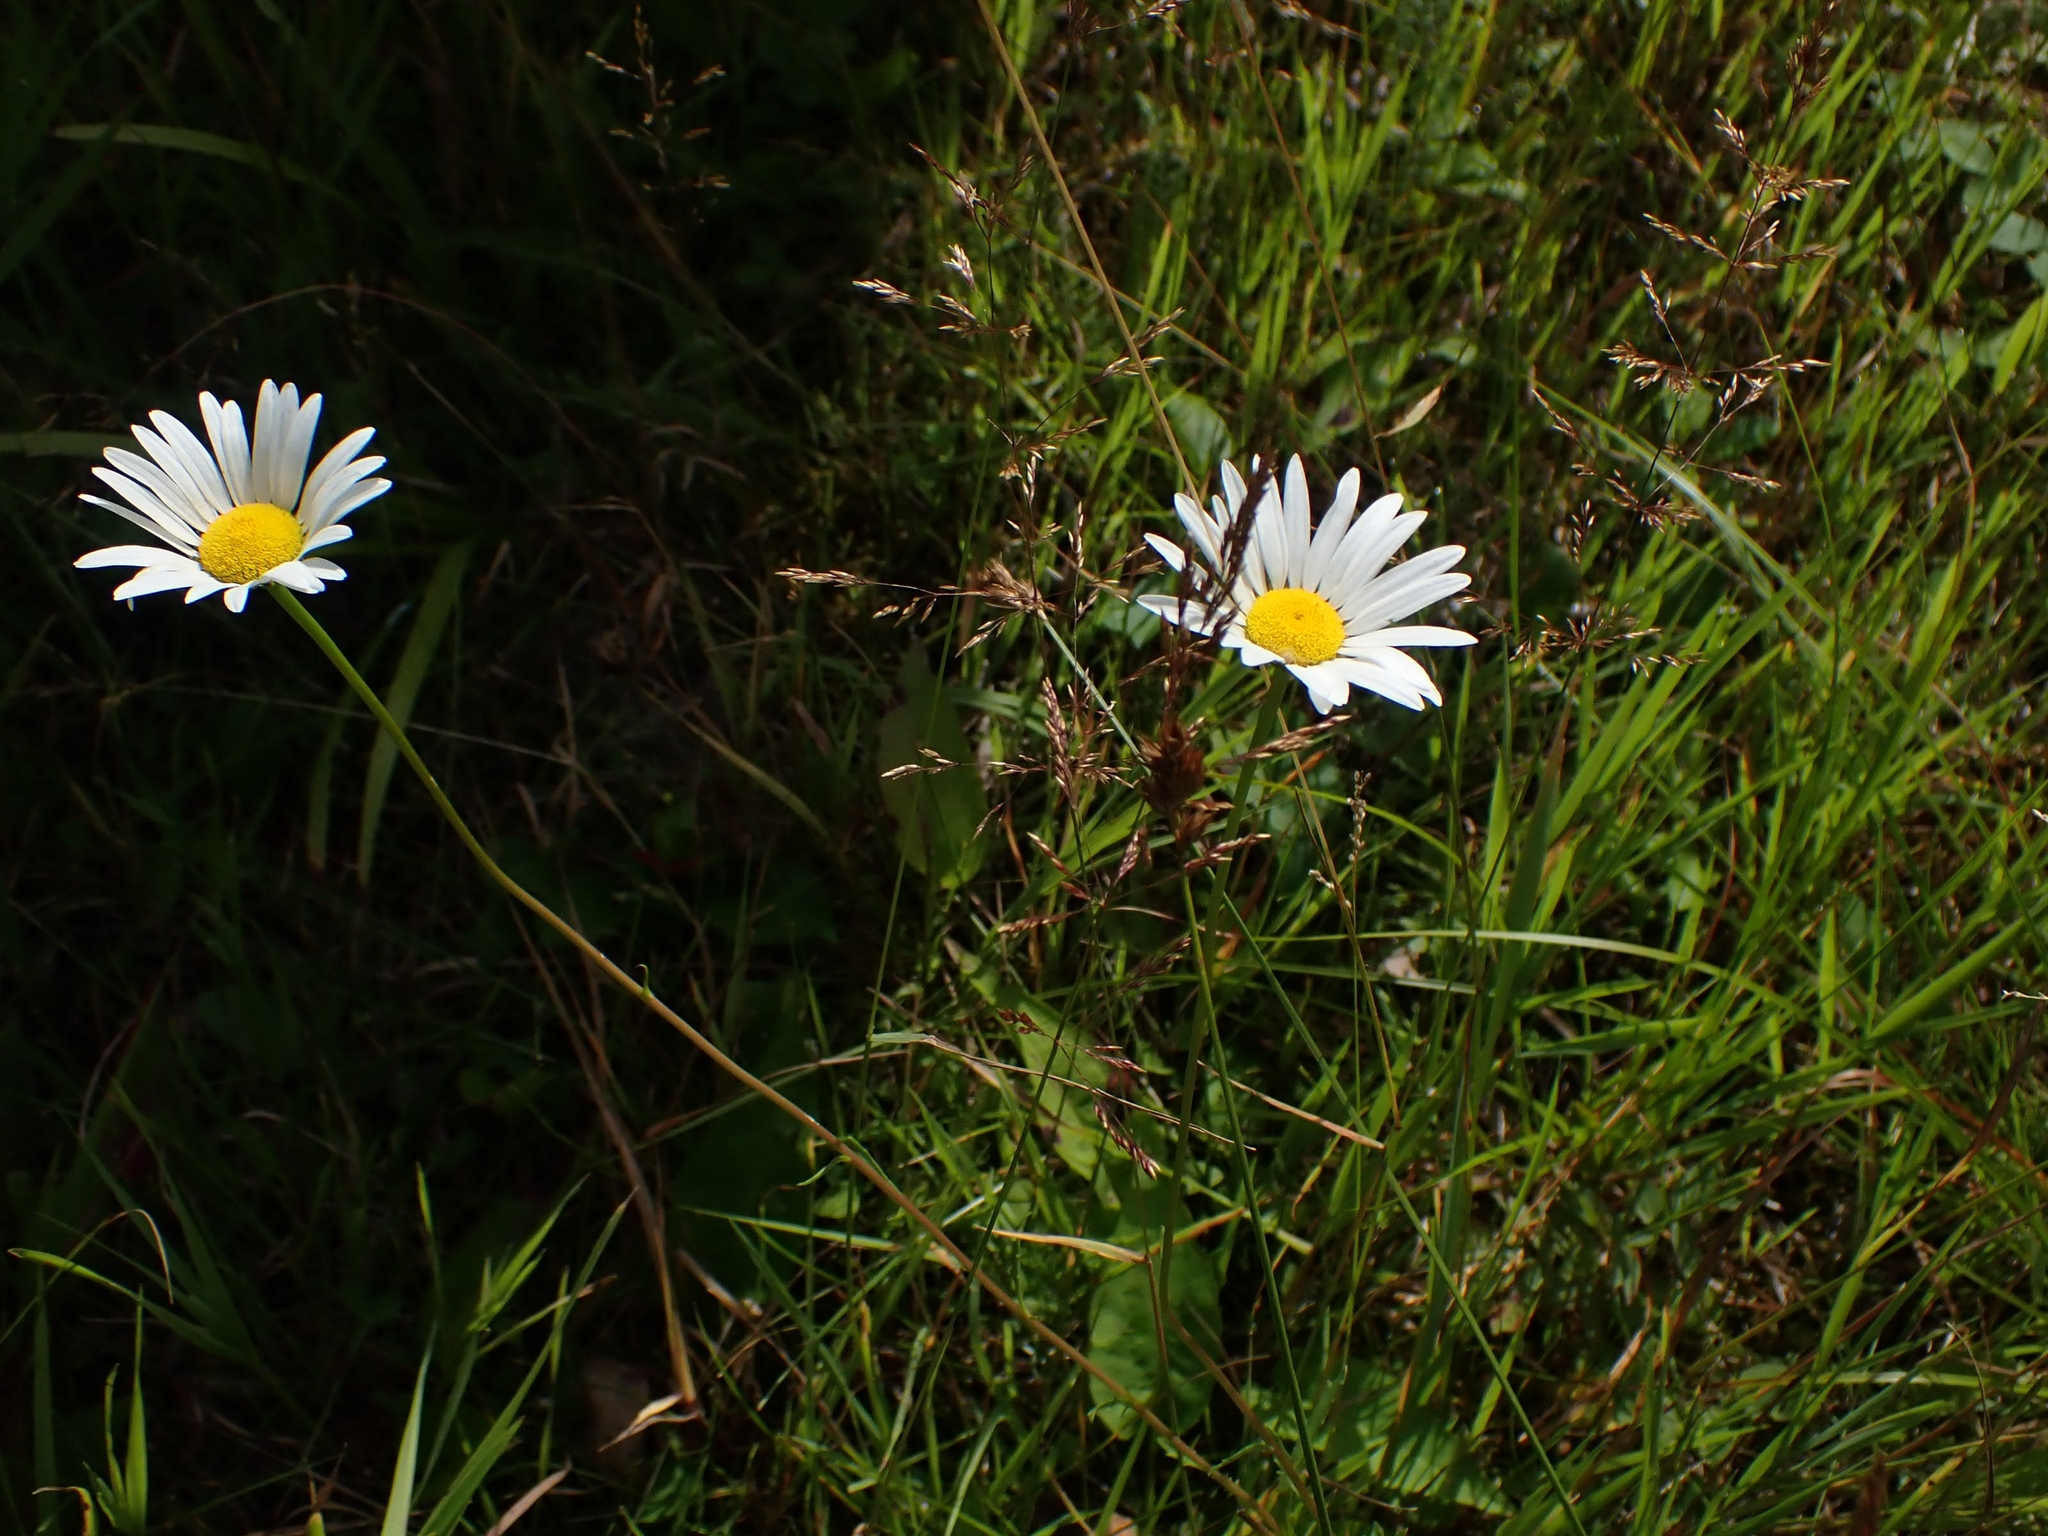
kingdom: Plantae
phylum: Tracheophyta
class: Magnoliopsida
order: Asterales
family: Asteraceae
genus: Leucanthemum
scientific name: Leucanthemum vulgare
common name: Oxeye daisy
